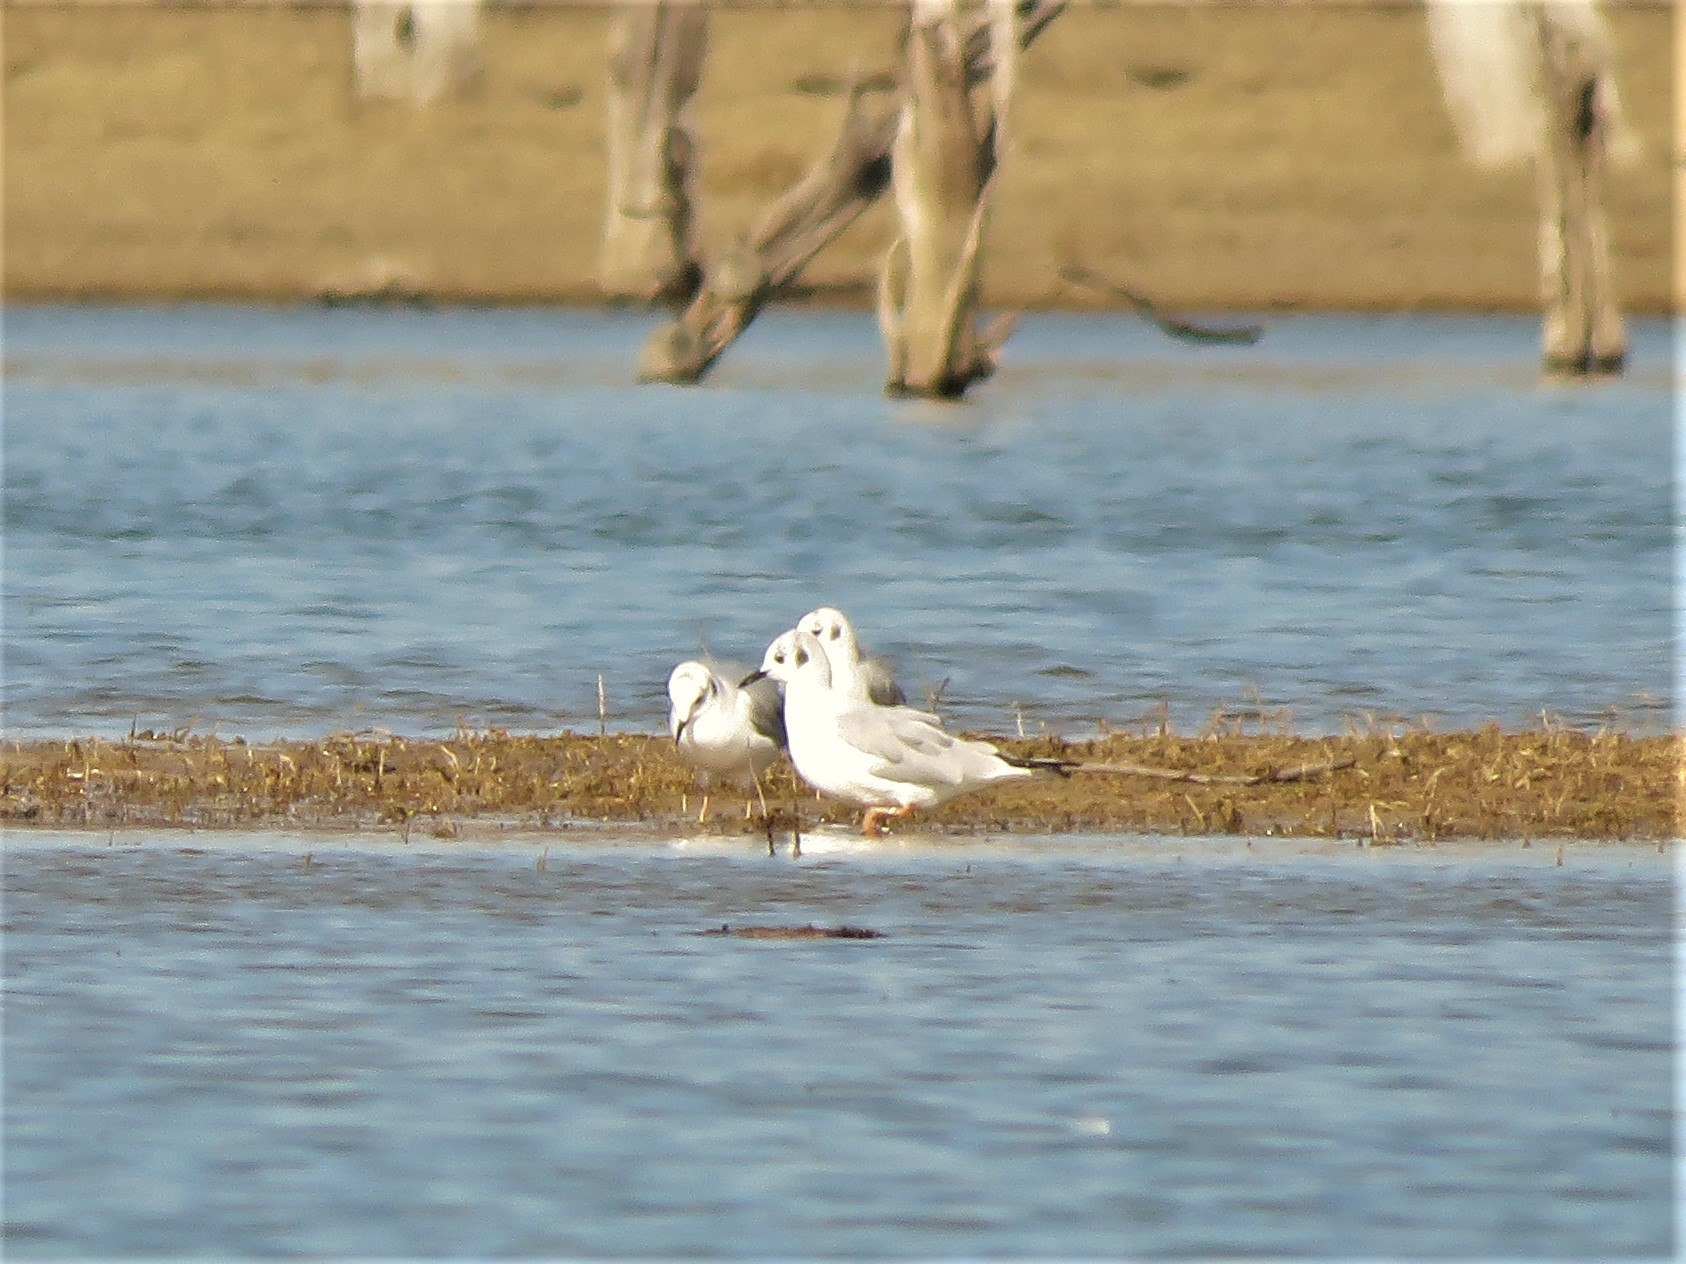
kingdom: Animalia
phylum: Chordata
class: Aves
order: Charadriiformes
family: Laridae
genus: Chroicocephalus
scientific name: Chroicocephalus philadelphia
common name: Bonaparte's gull
